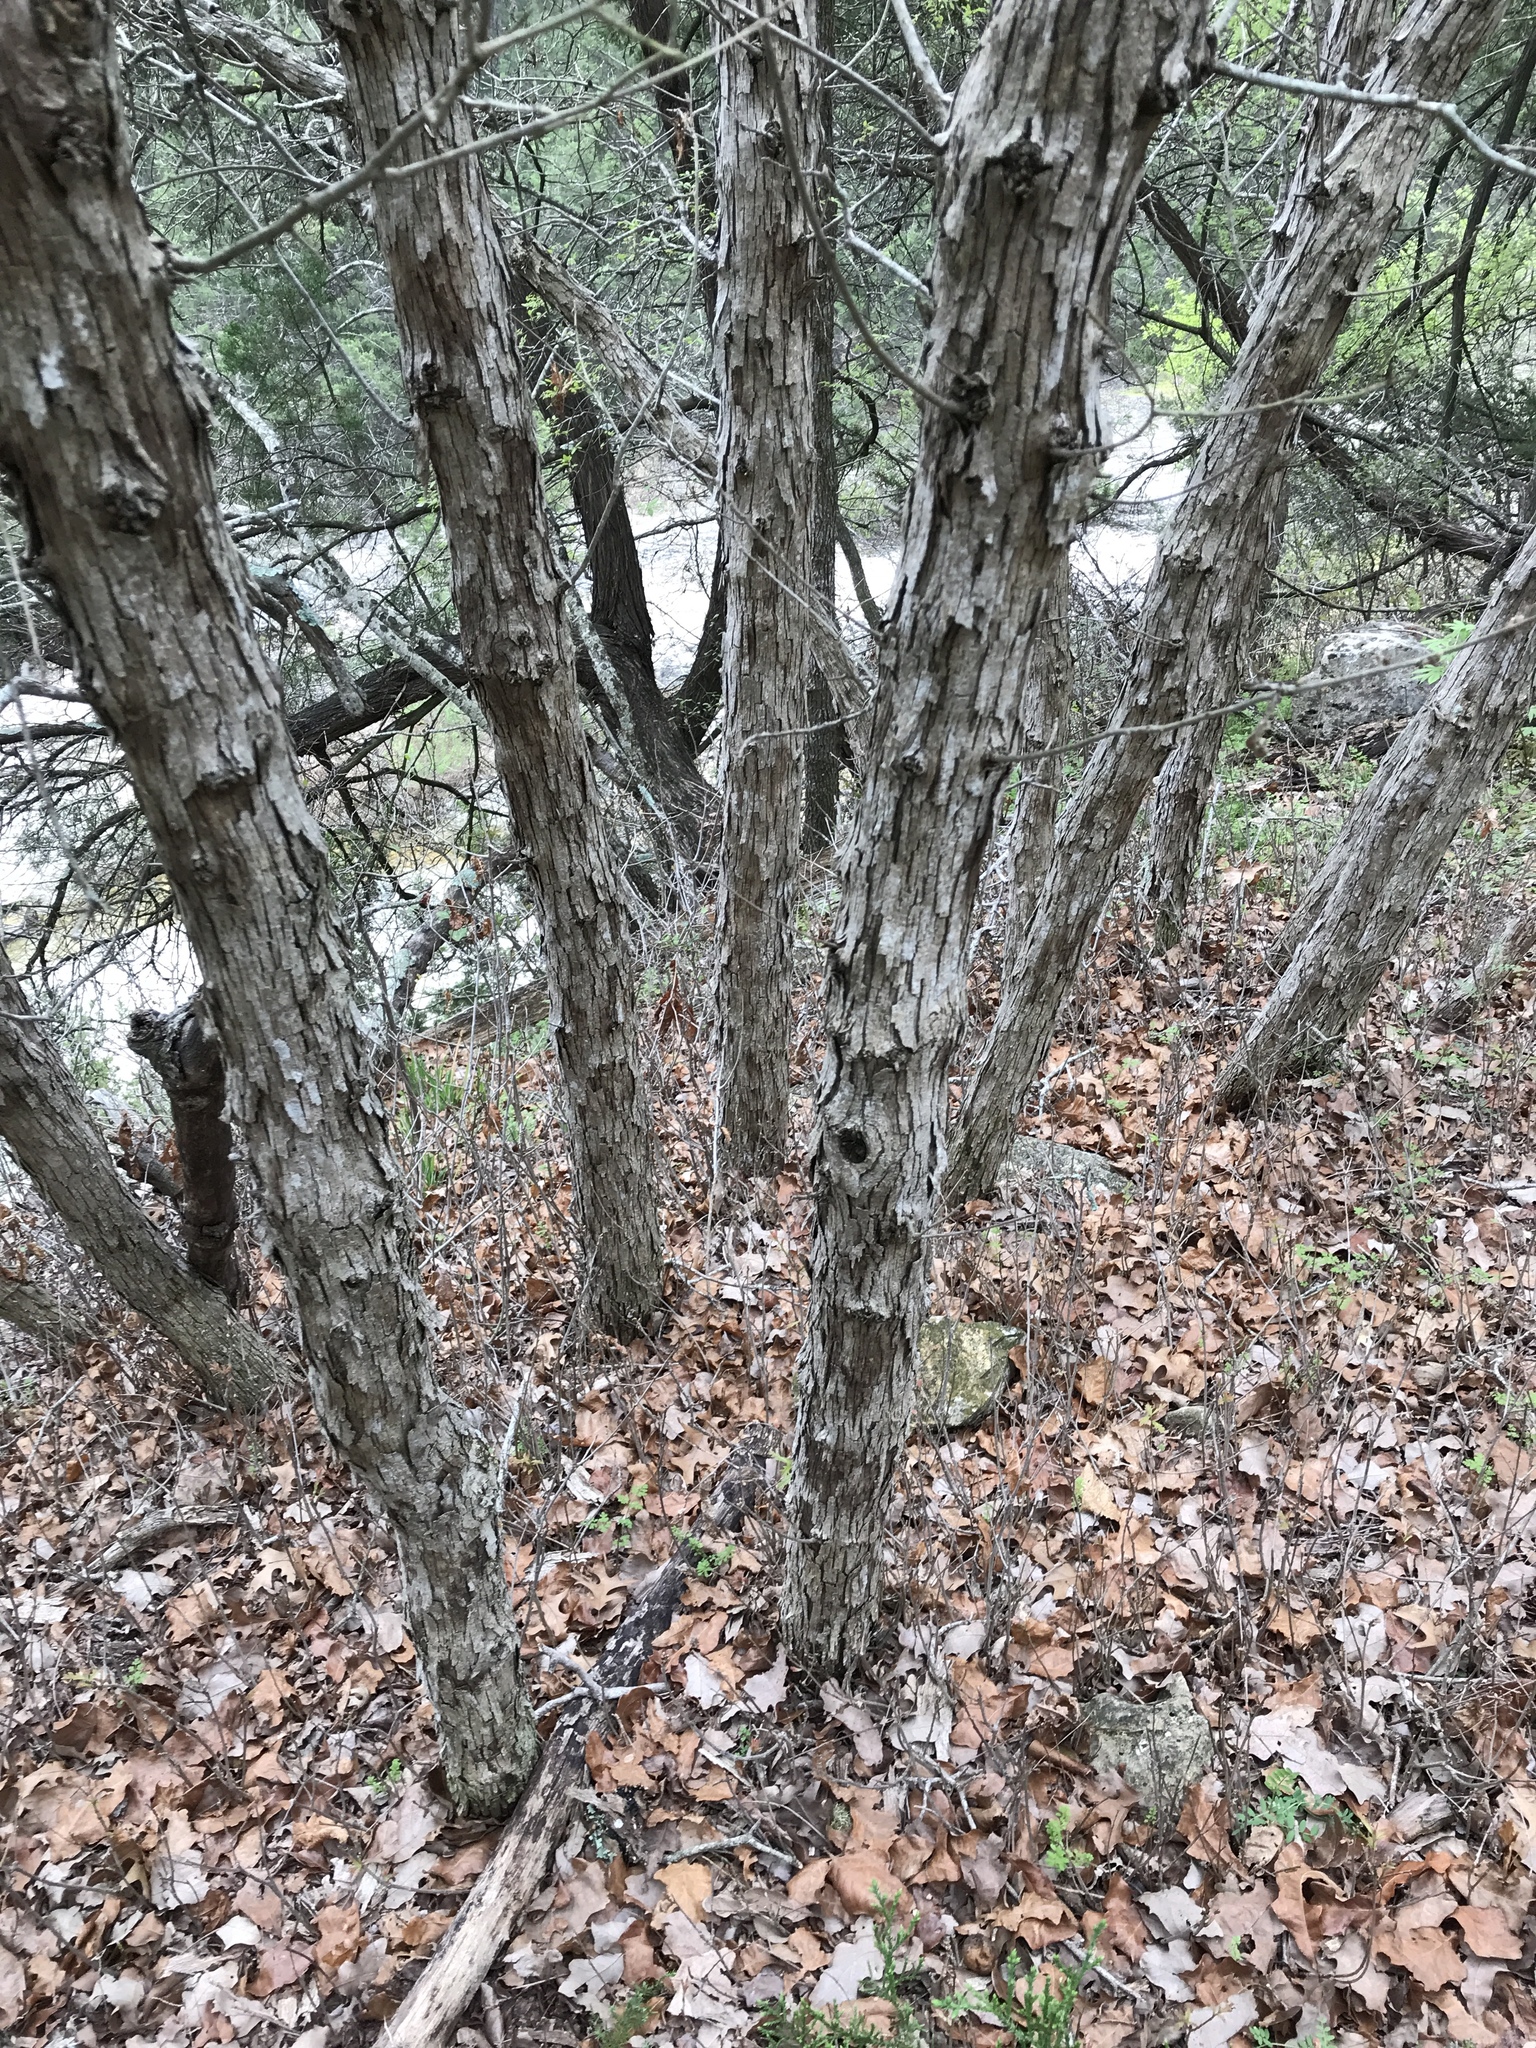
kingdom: Plantae
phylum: Tracheophyta
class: Magnoliopsida
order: Fagales
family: Fagaceae
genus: Quercus
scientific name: Quercus sinuata
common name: Durand oak
